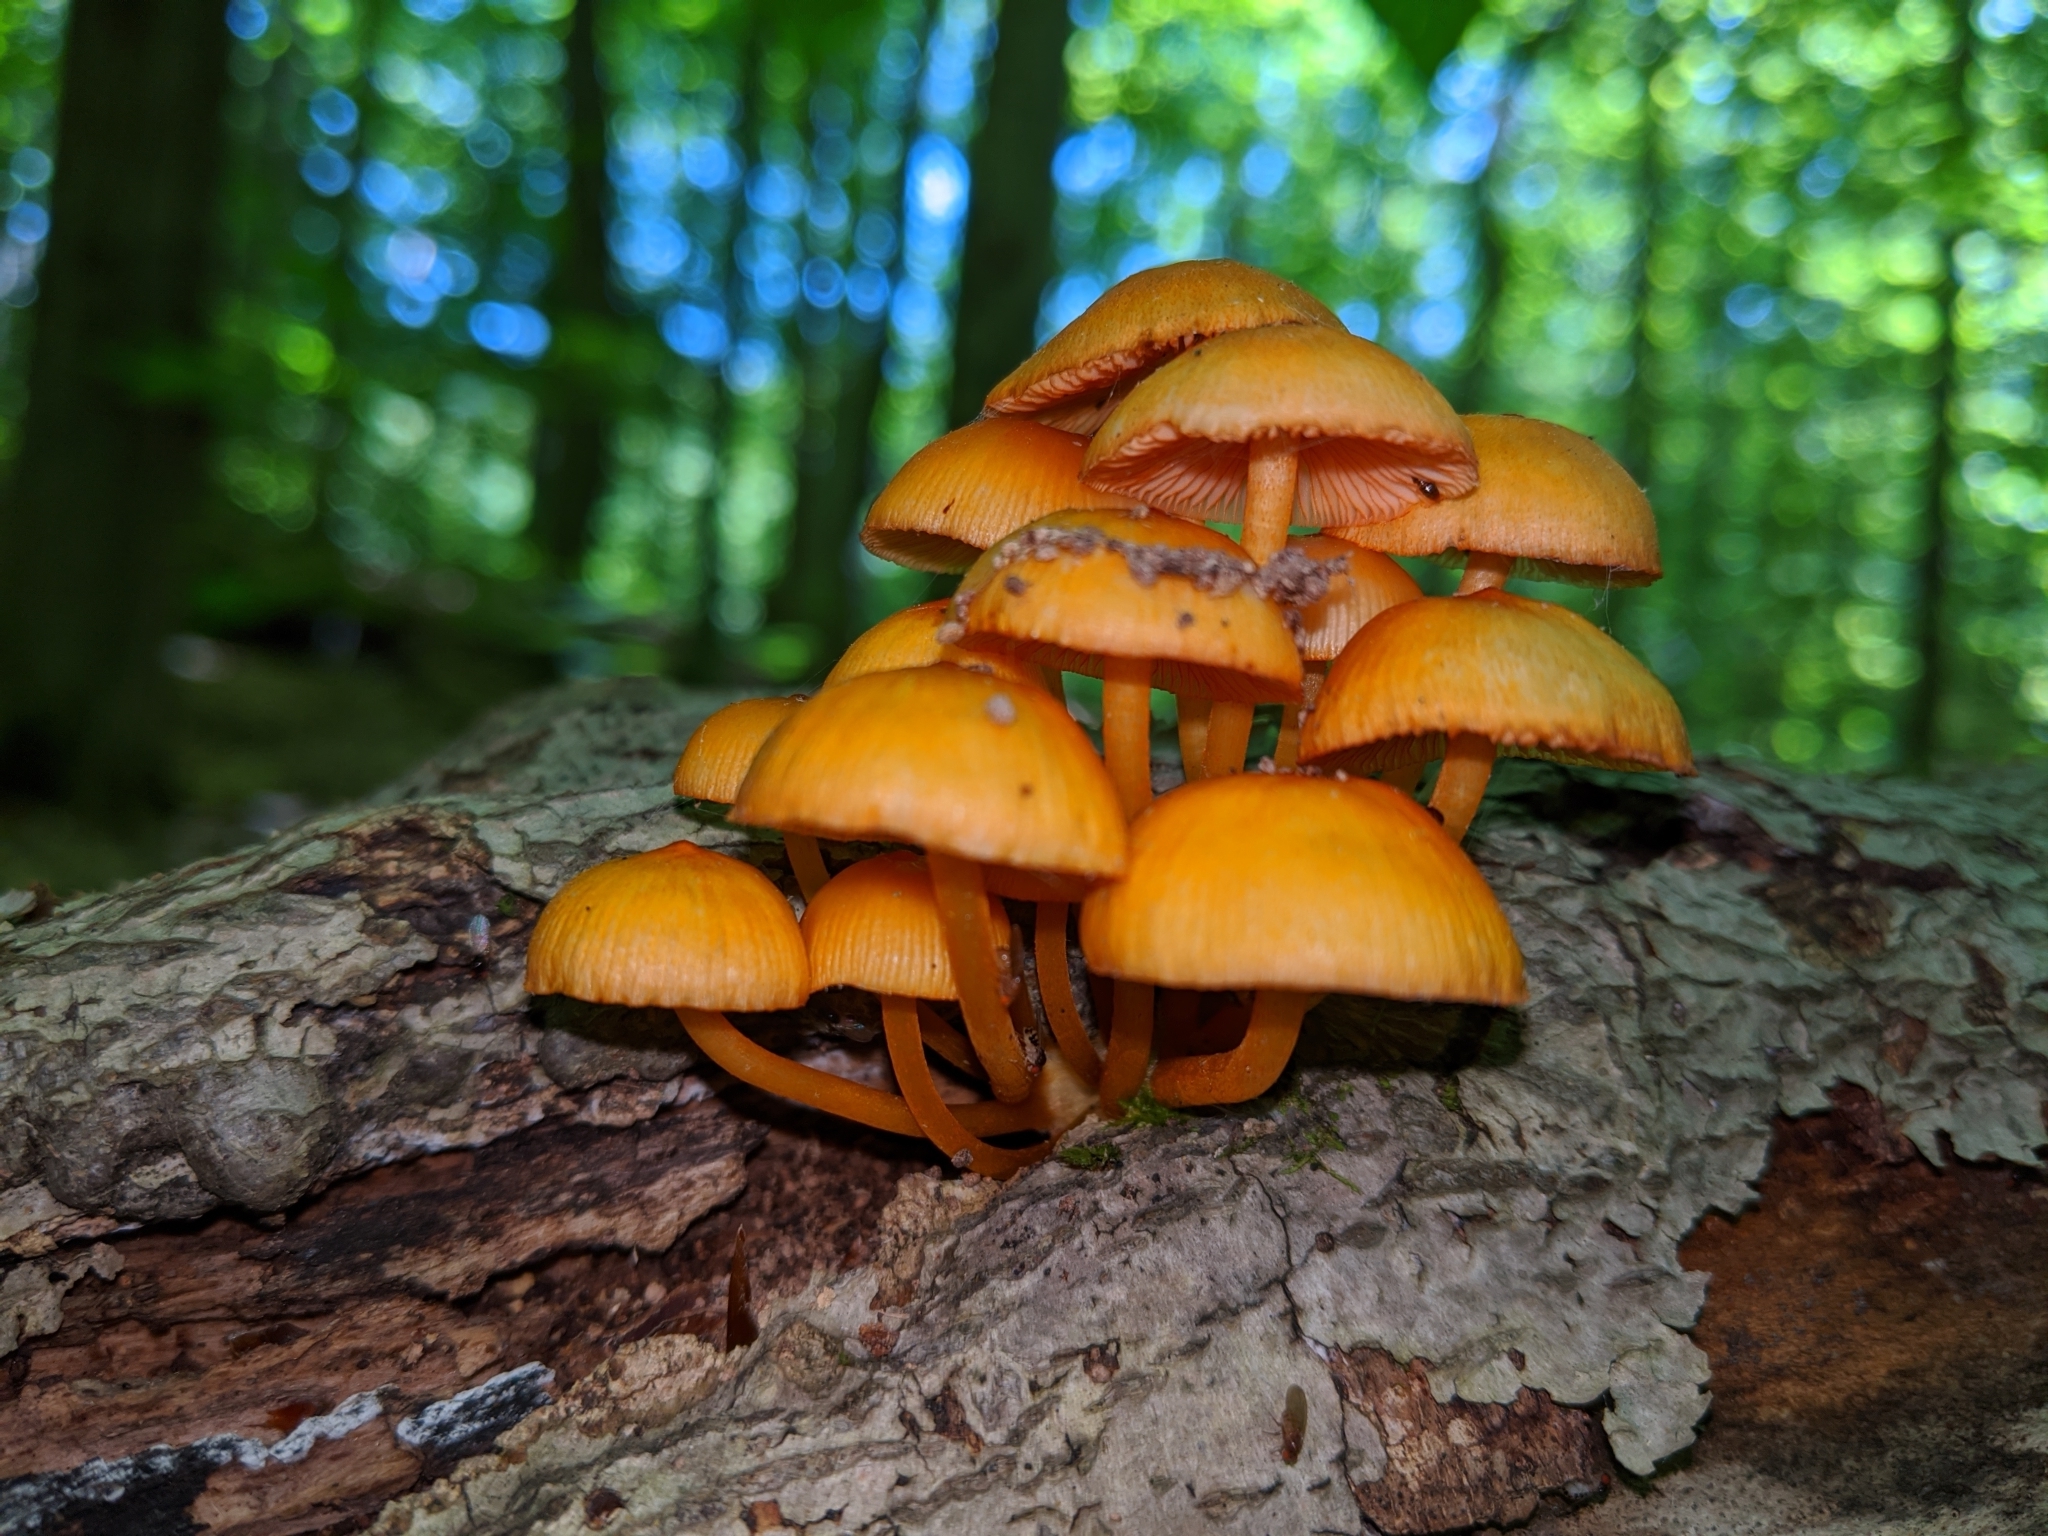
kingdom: Fungi
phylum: Basidiomycota
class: Agaricomycetes
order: Agaricales
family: Mycenaceae
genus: Mycena
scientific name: Mycena leaiana
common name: Orange mycena
